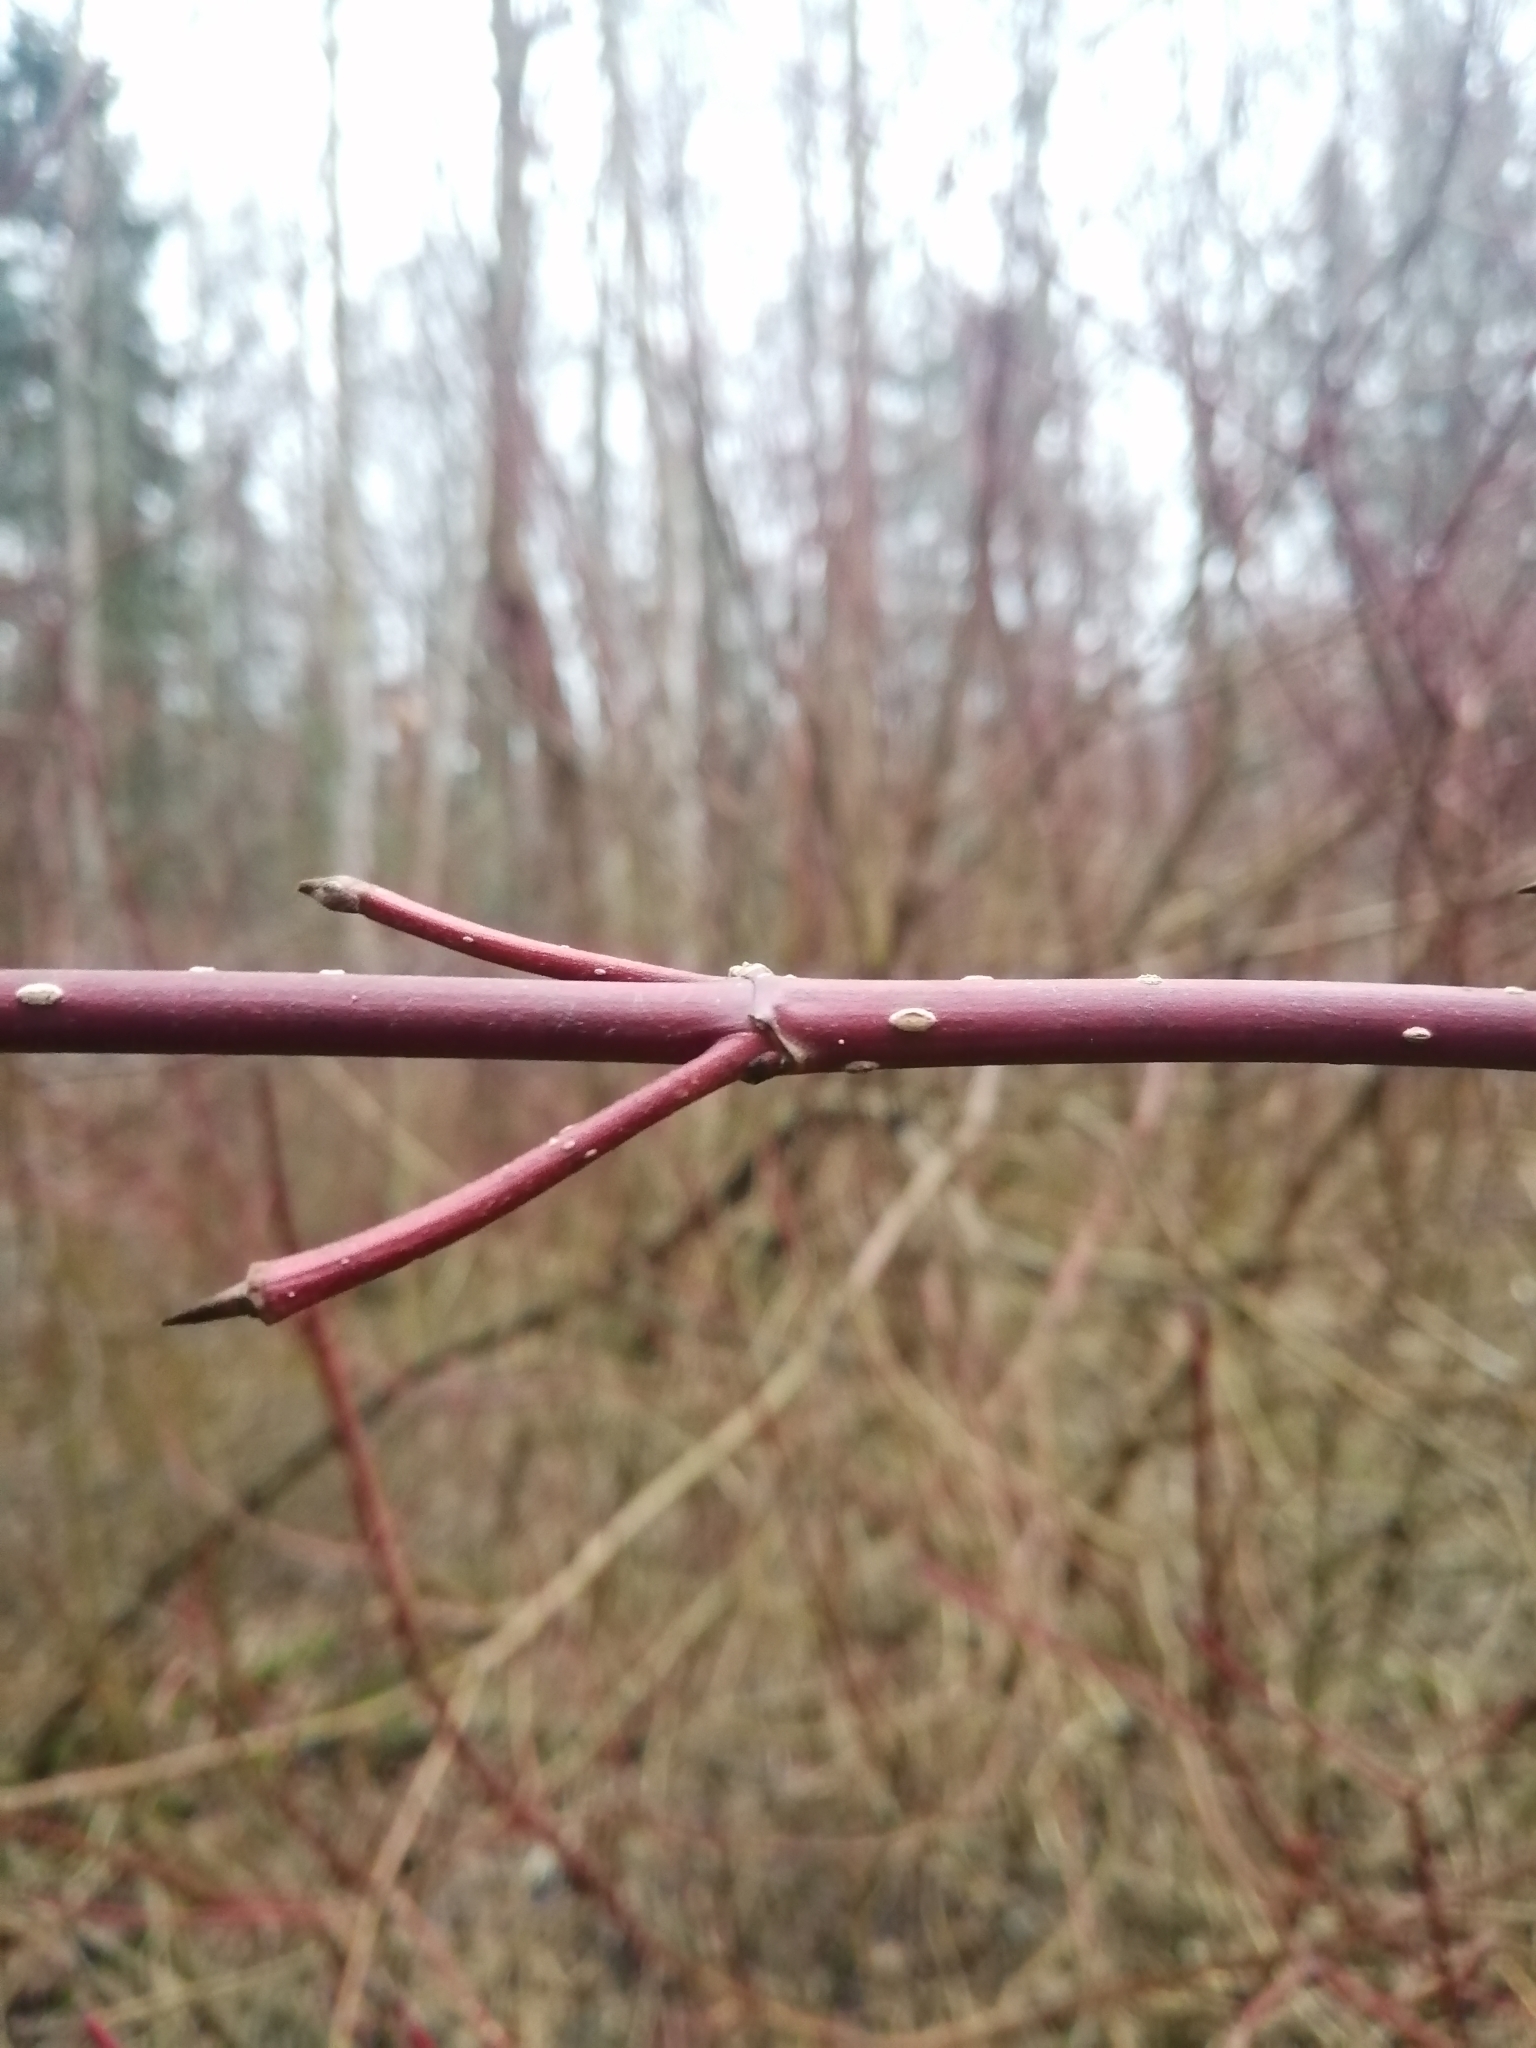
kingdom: Plantae
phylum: Tracheophyta
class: Magnoliopsida
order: Cornales
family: Cornaceae
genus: Cornus
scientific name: Cornus alba
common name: White dogwood
